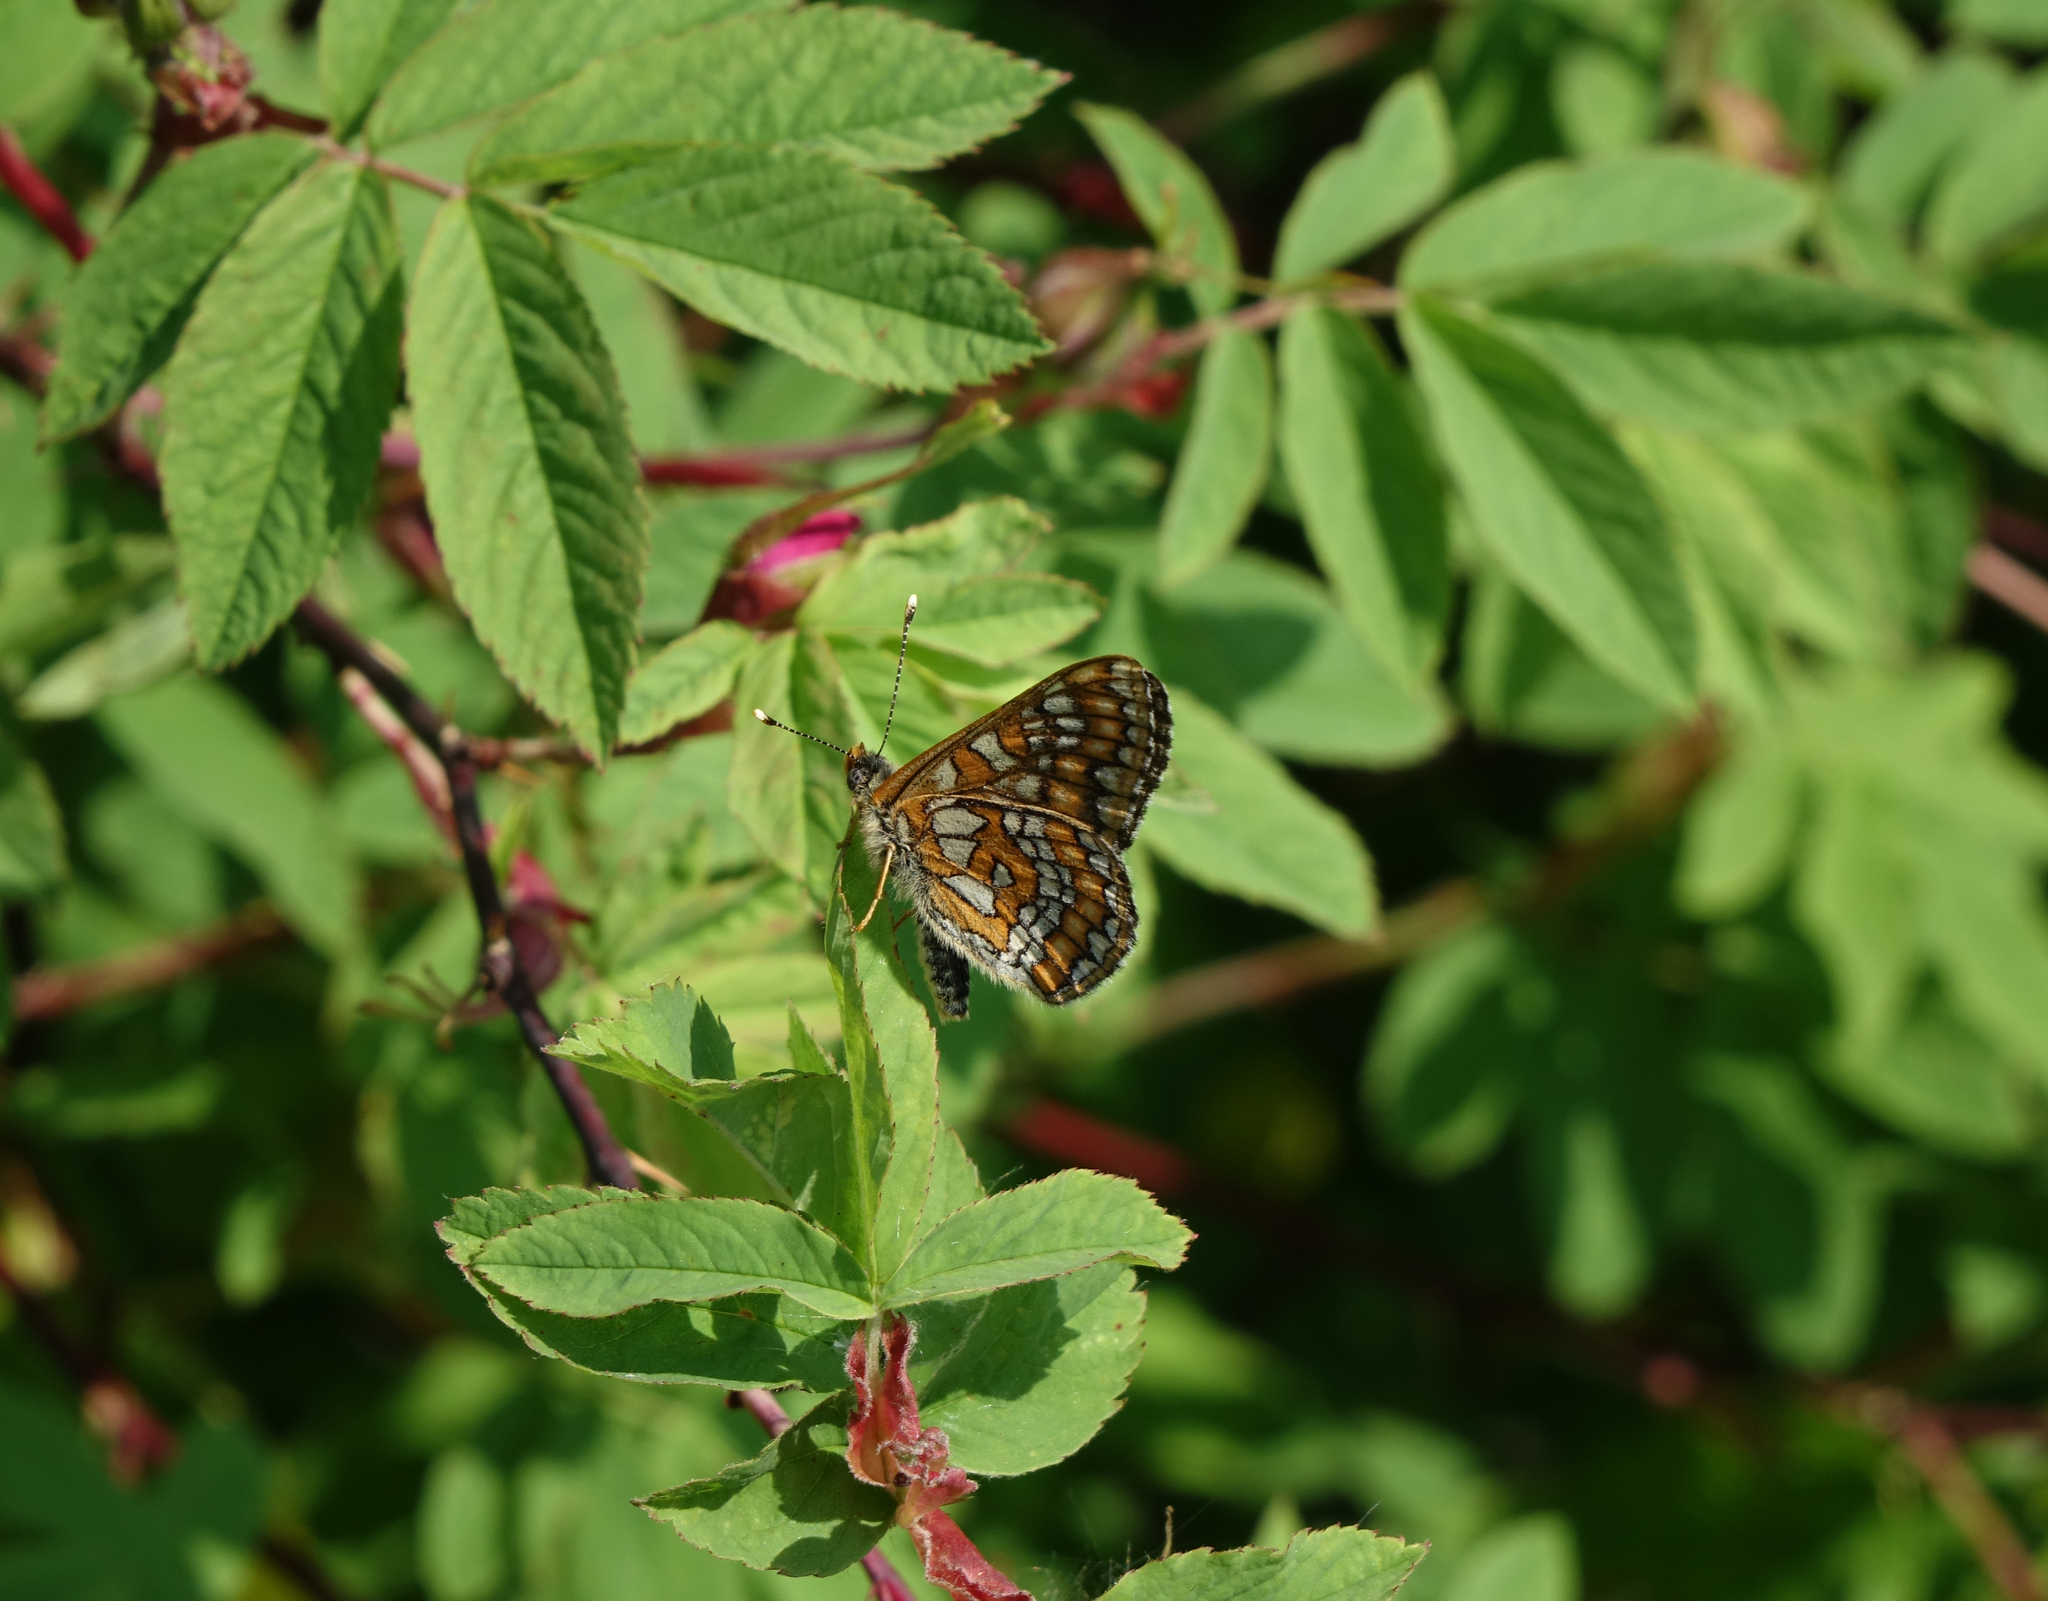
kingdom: Animalia
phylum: Arthropoda
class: Insecta
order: Lepidoptera
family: Nymphalidae
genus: Euphydryas
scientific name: Euphydryas maturna
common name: Scarce fritillary
